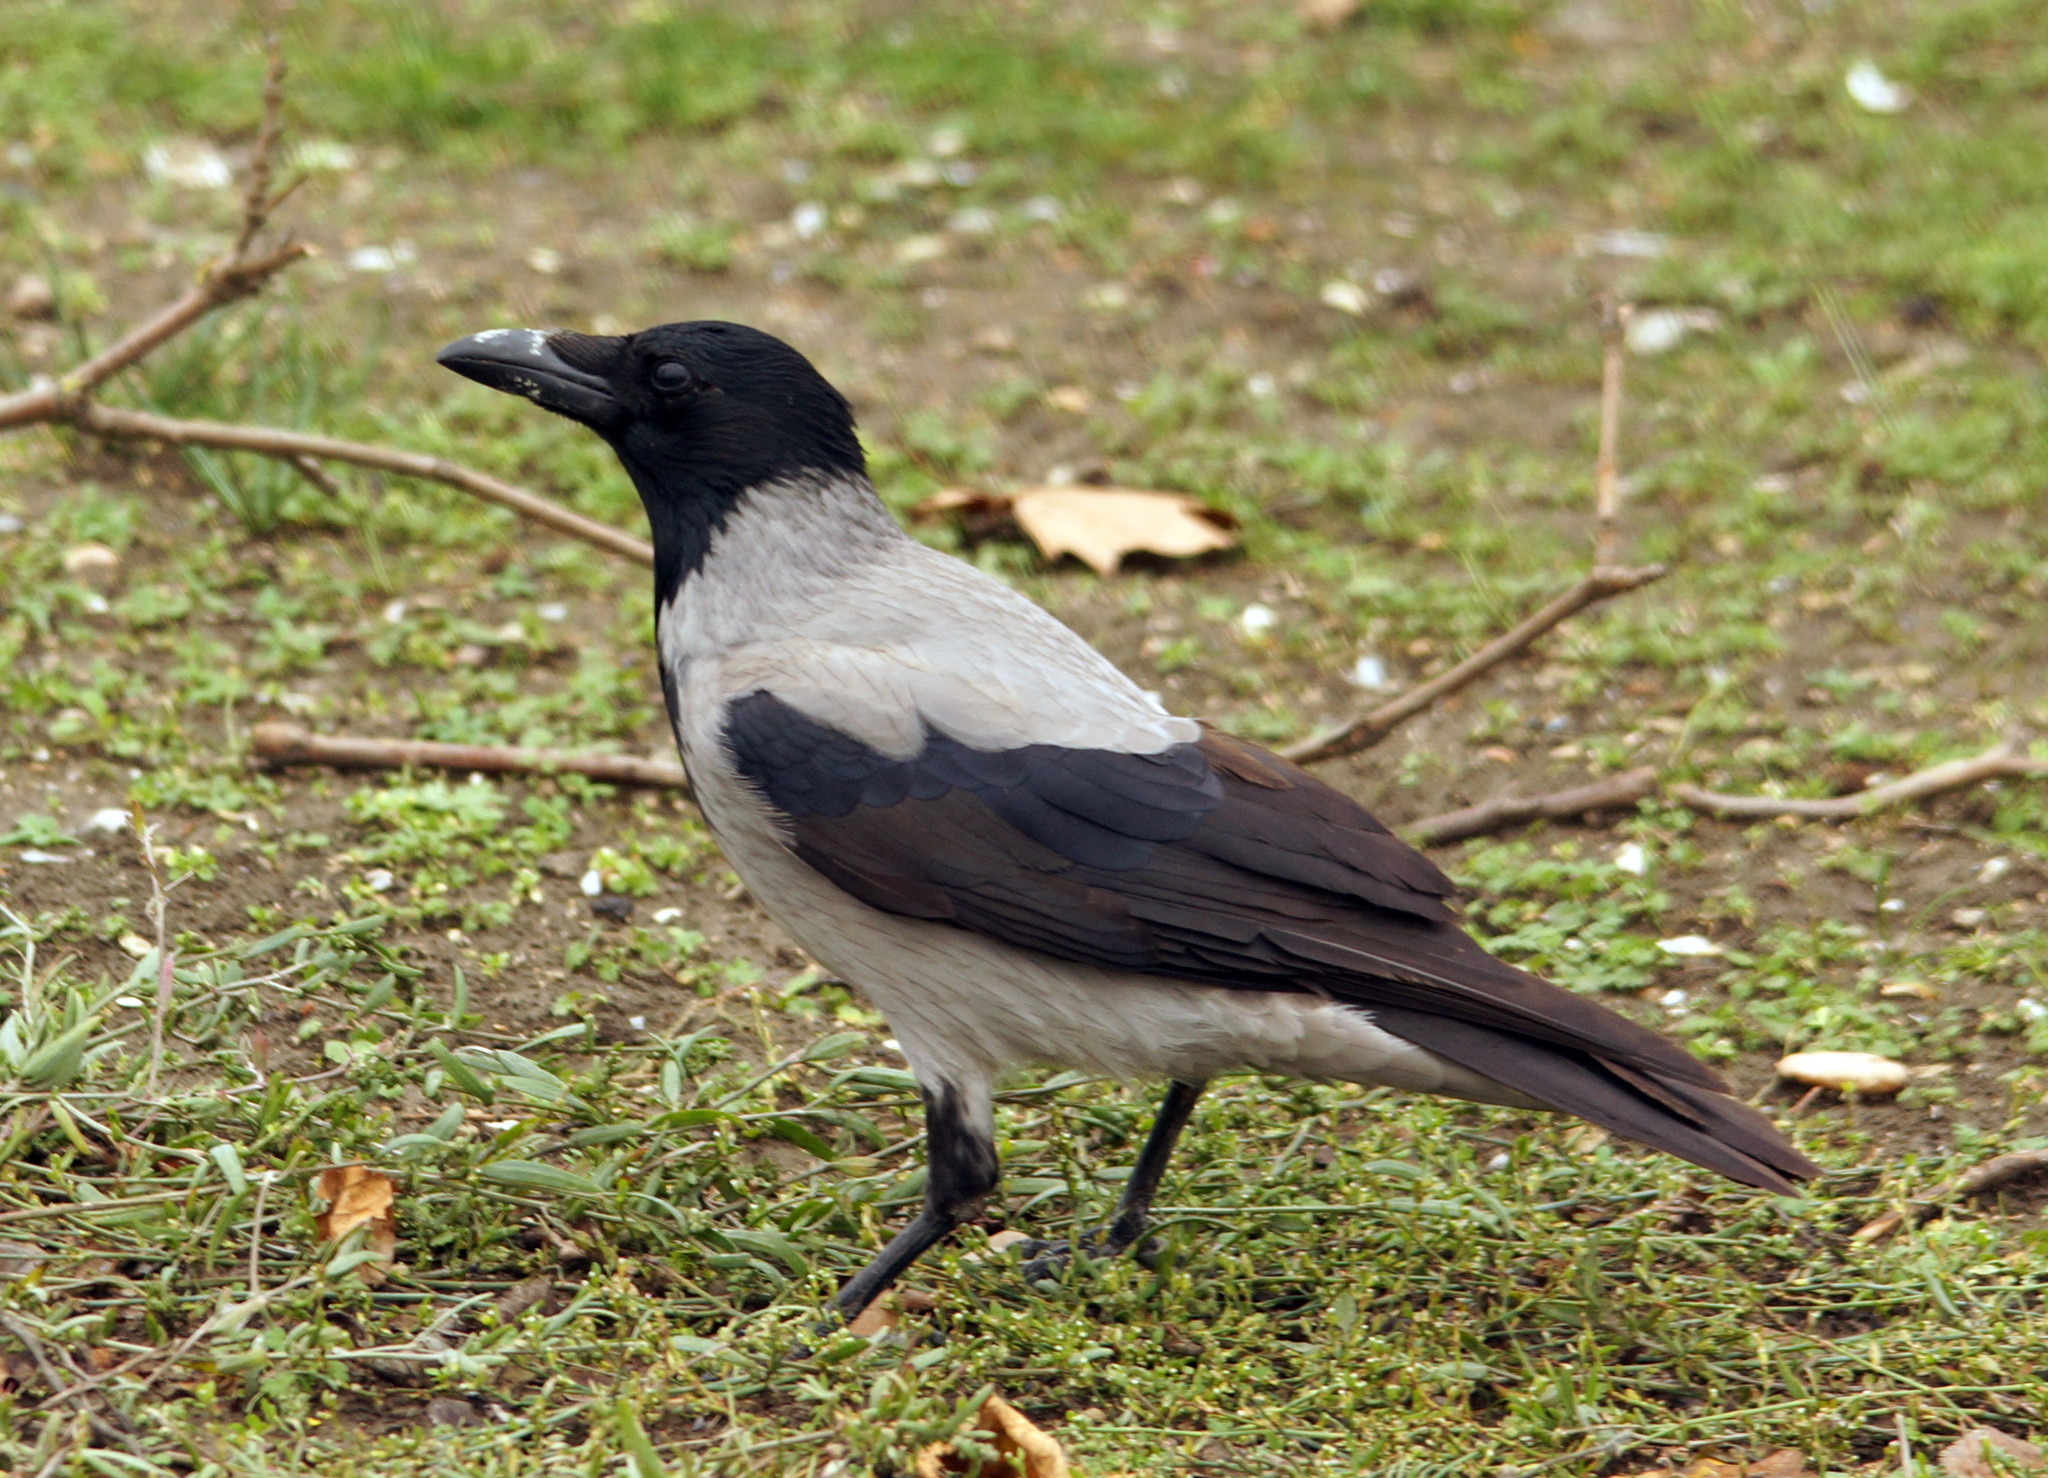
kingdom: Animalia
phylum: Chordata
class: Aves
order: Passeriformes
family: Corvidae
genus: Corvus
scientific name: Corvus cornix
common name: Hooded crow
